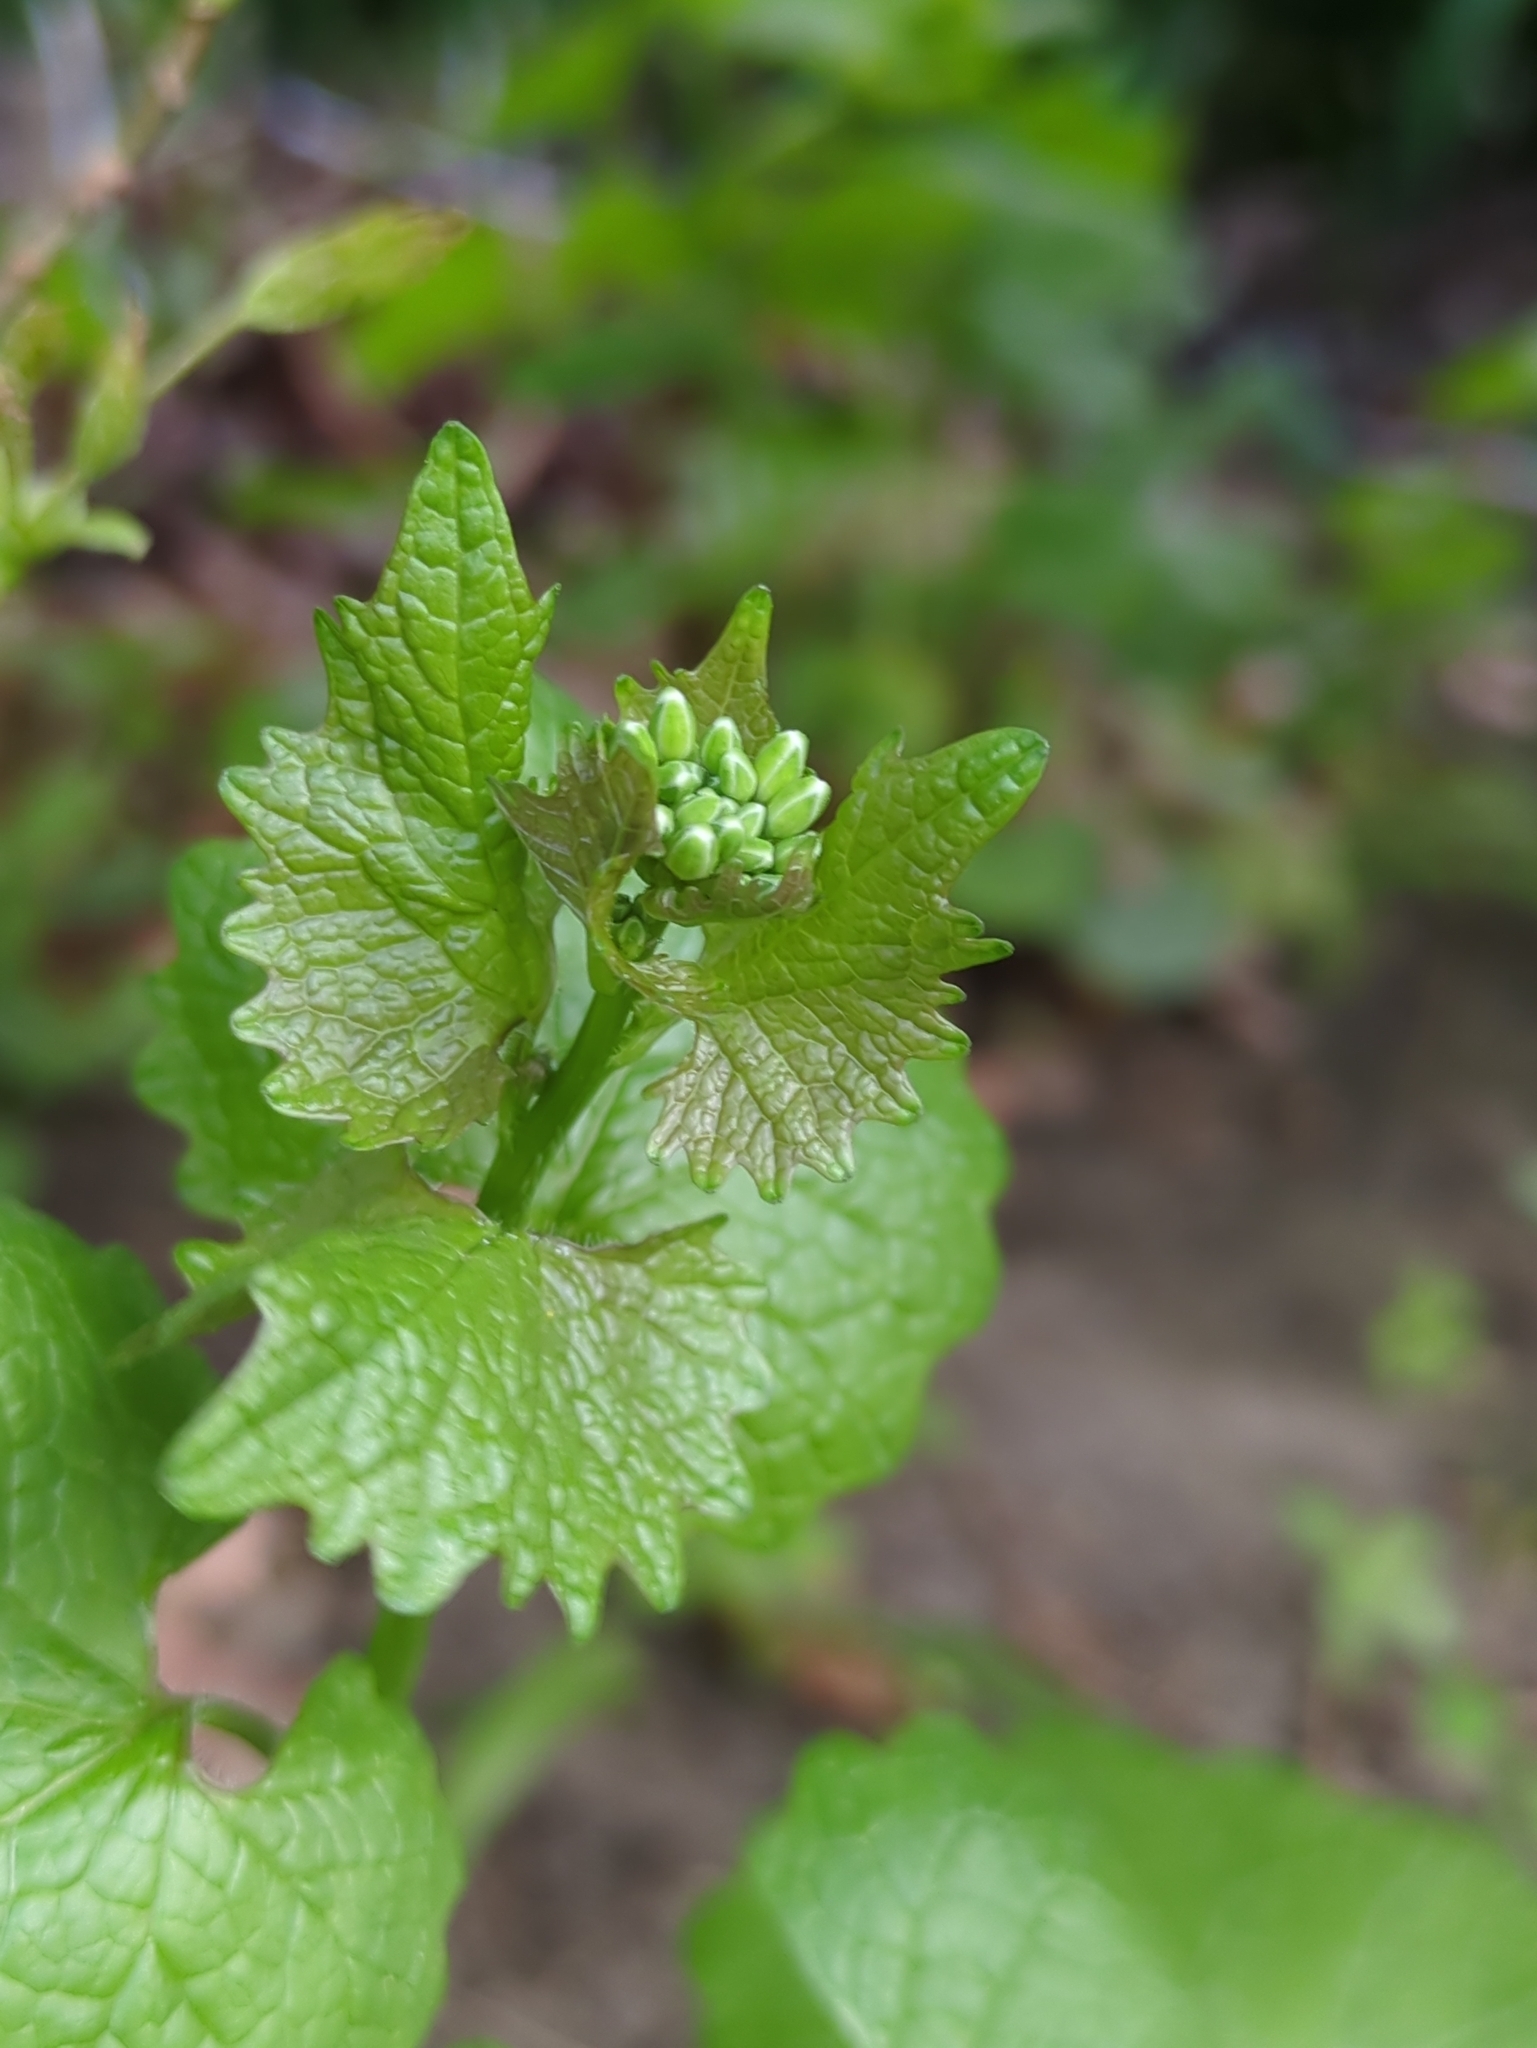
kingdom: Plantae
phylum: Tracheophyta
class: Magnoliopsida
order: Brassicales
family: Brassicaceae
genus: Alliaria
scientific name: Alliaria petiolata
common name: Garlic mustard
